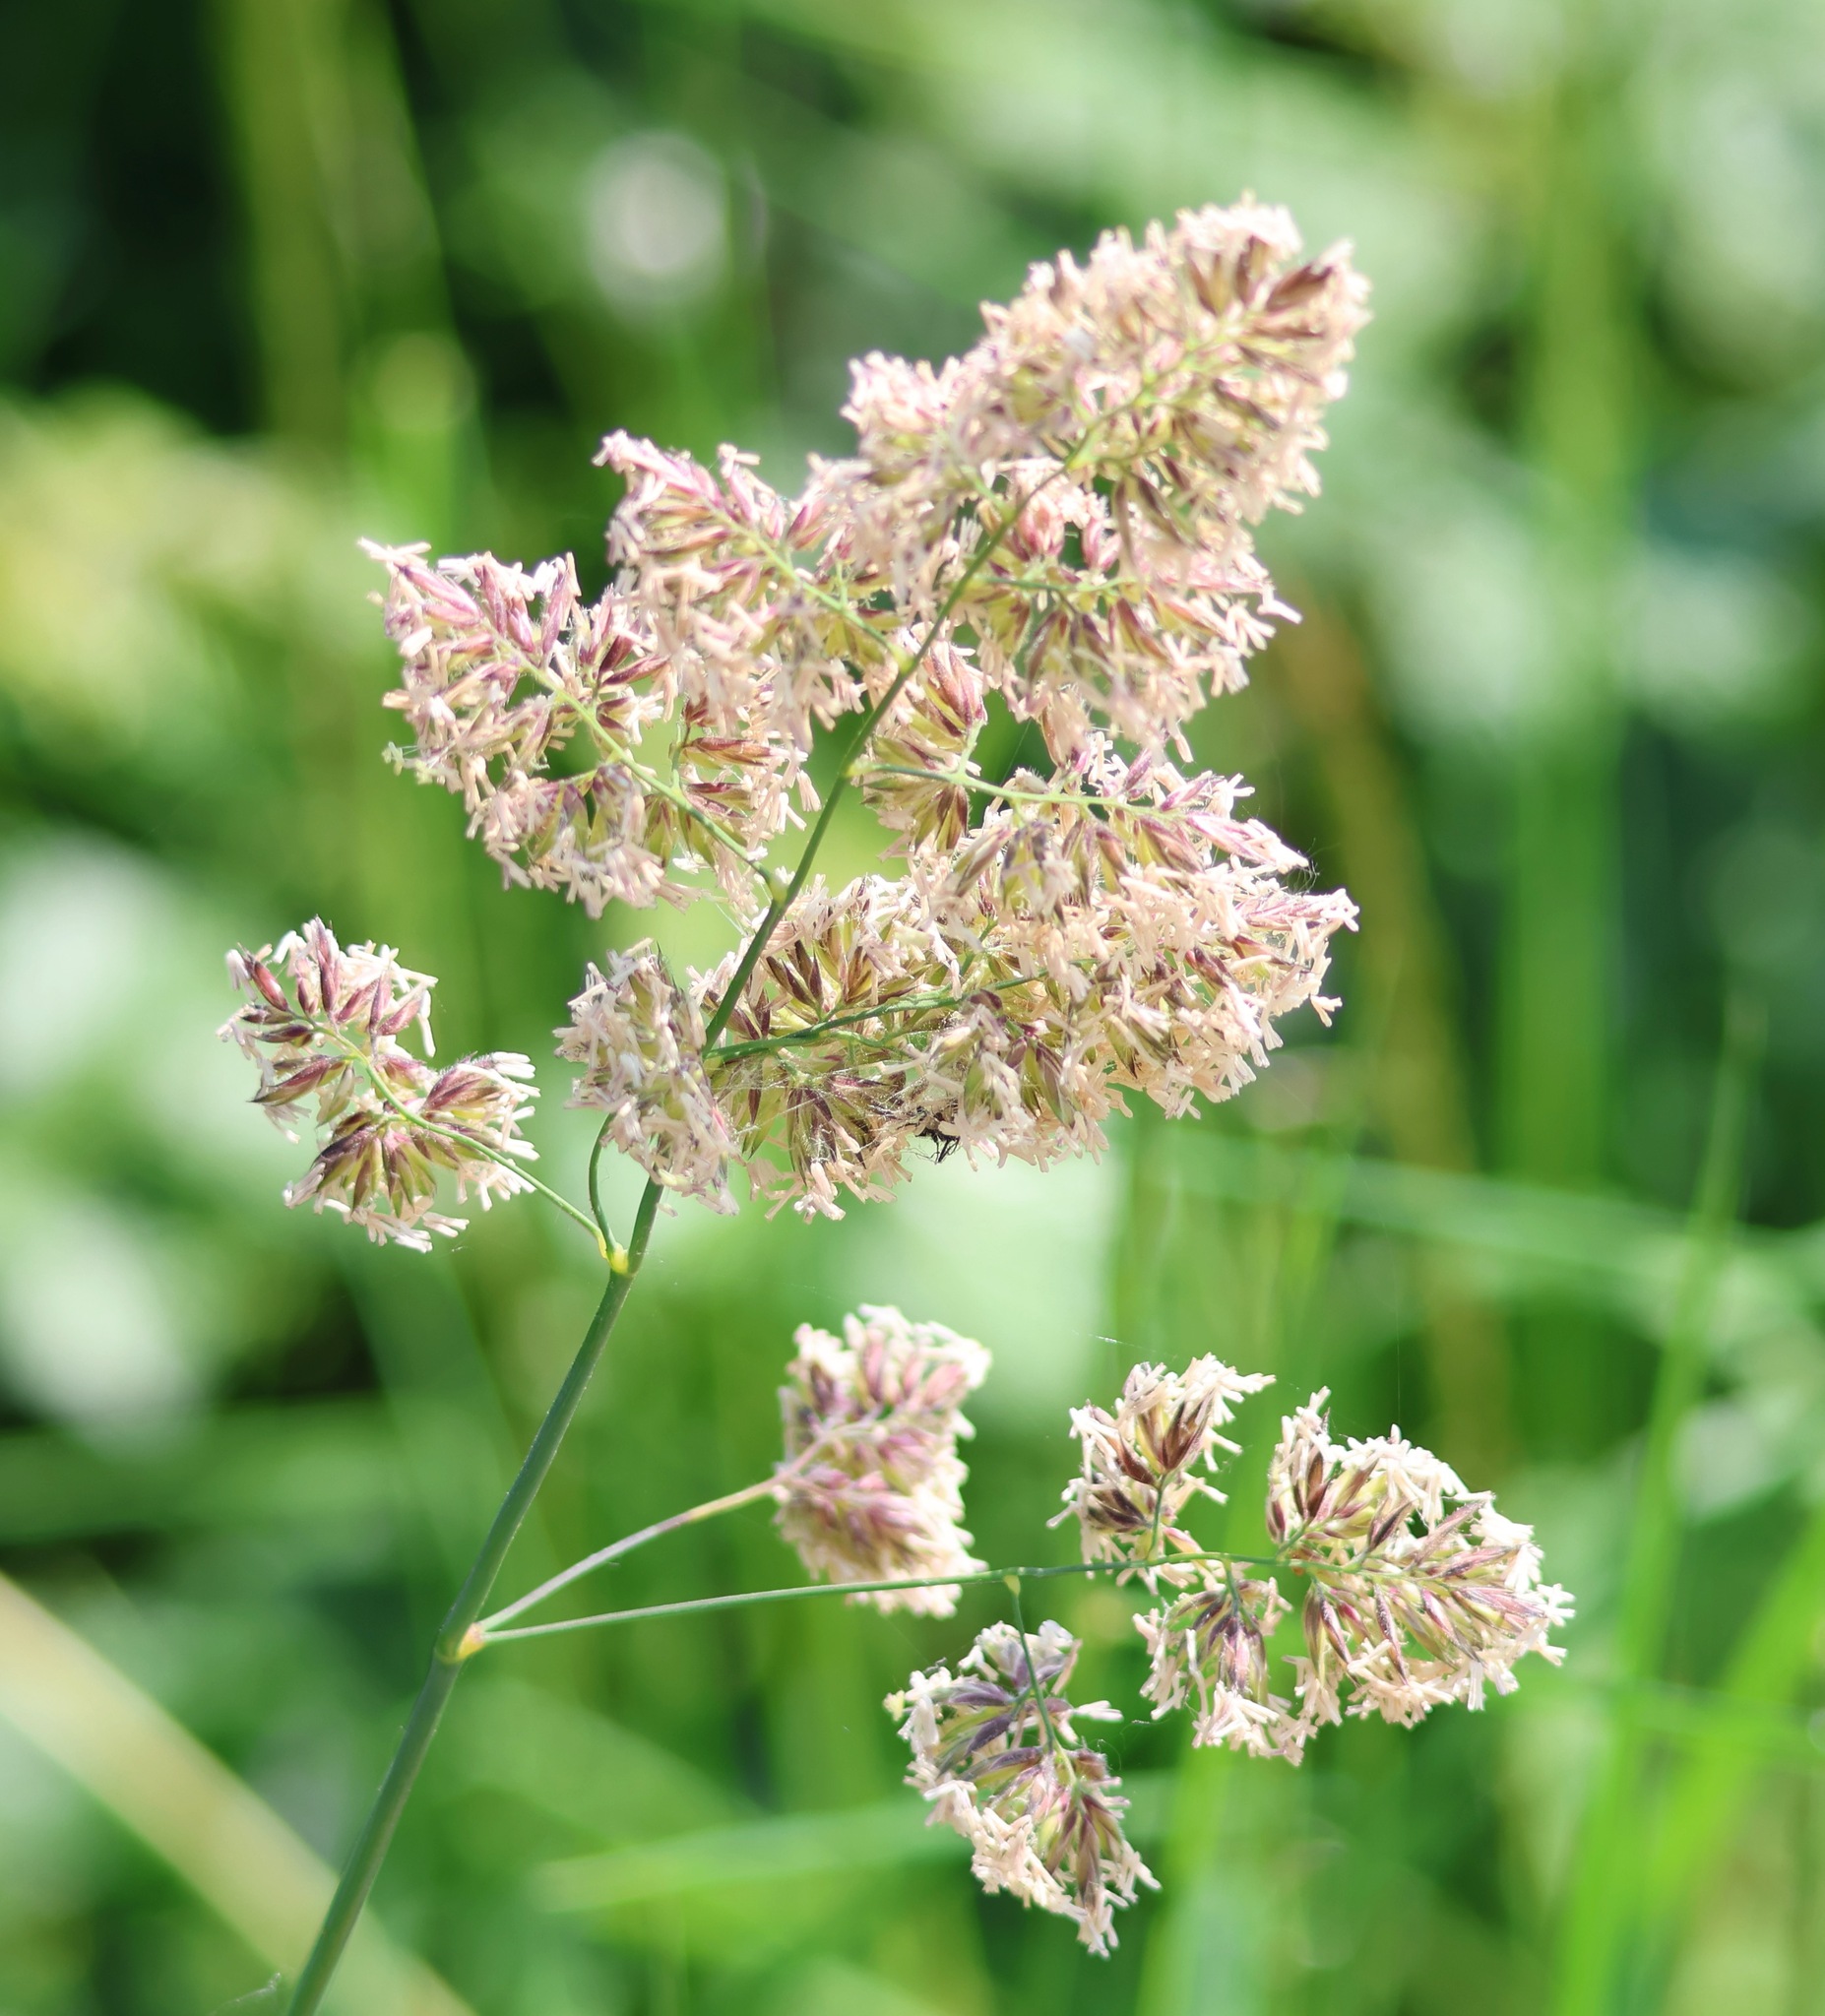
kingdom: Plantae
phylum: Tracheophyta
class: Liliopsida
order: Poales
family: Poaceae
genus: Dactylis
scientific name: Dactylis glomerata
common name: Orchardgrass
